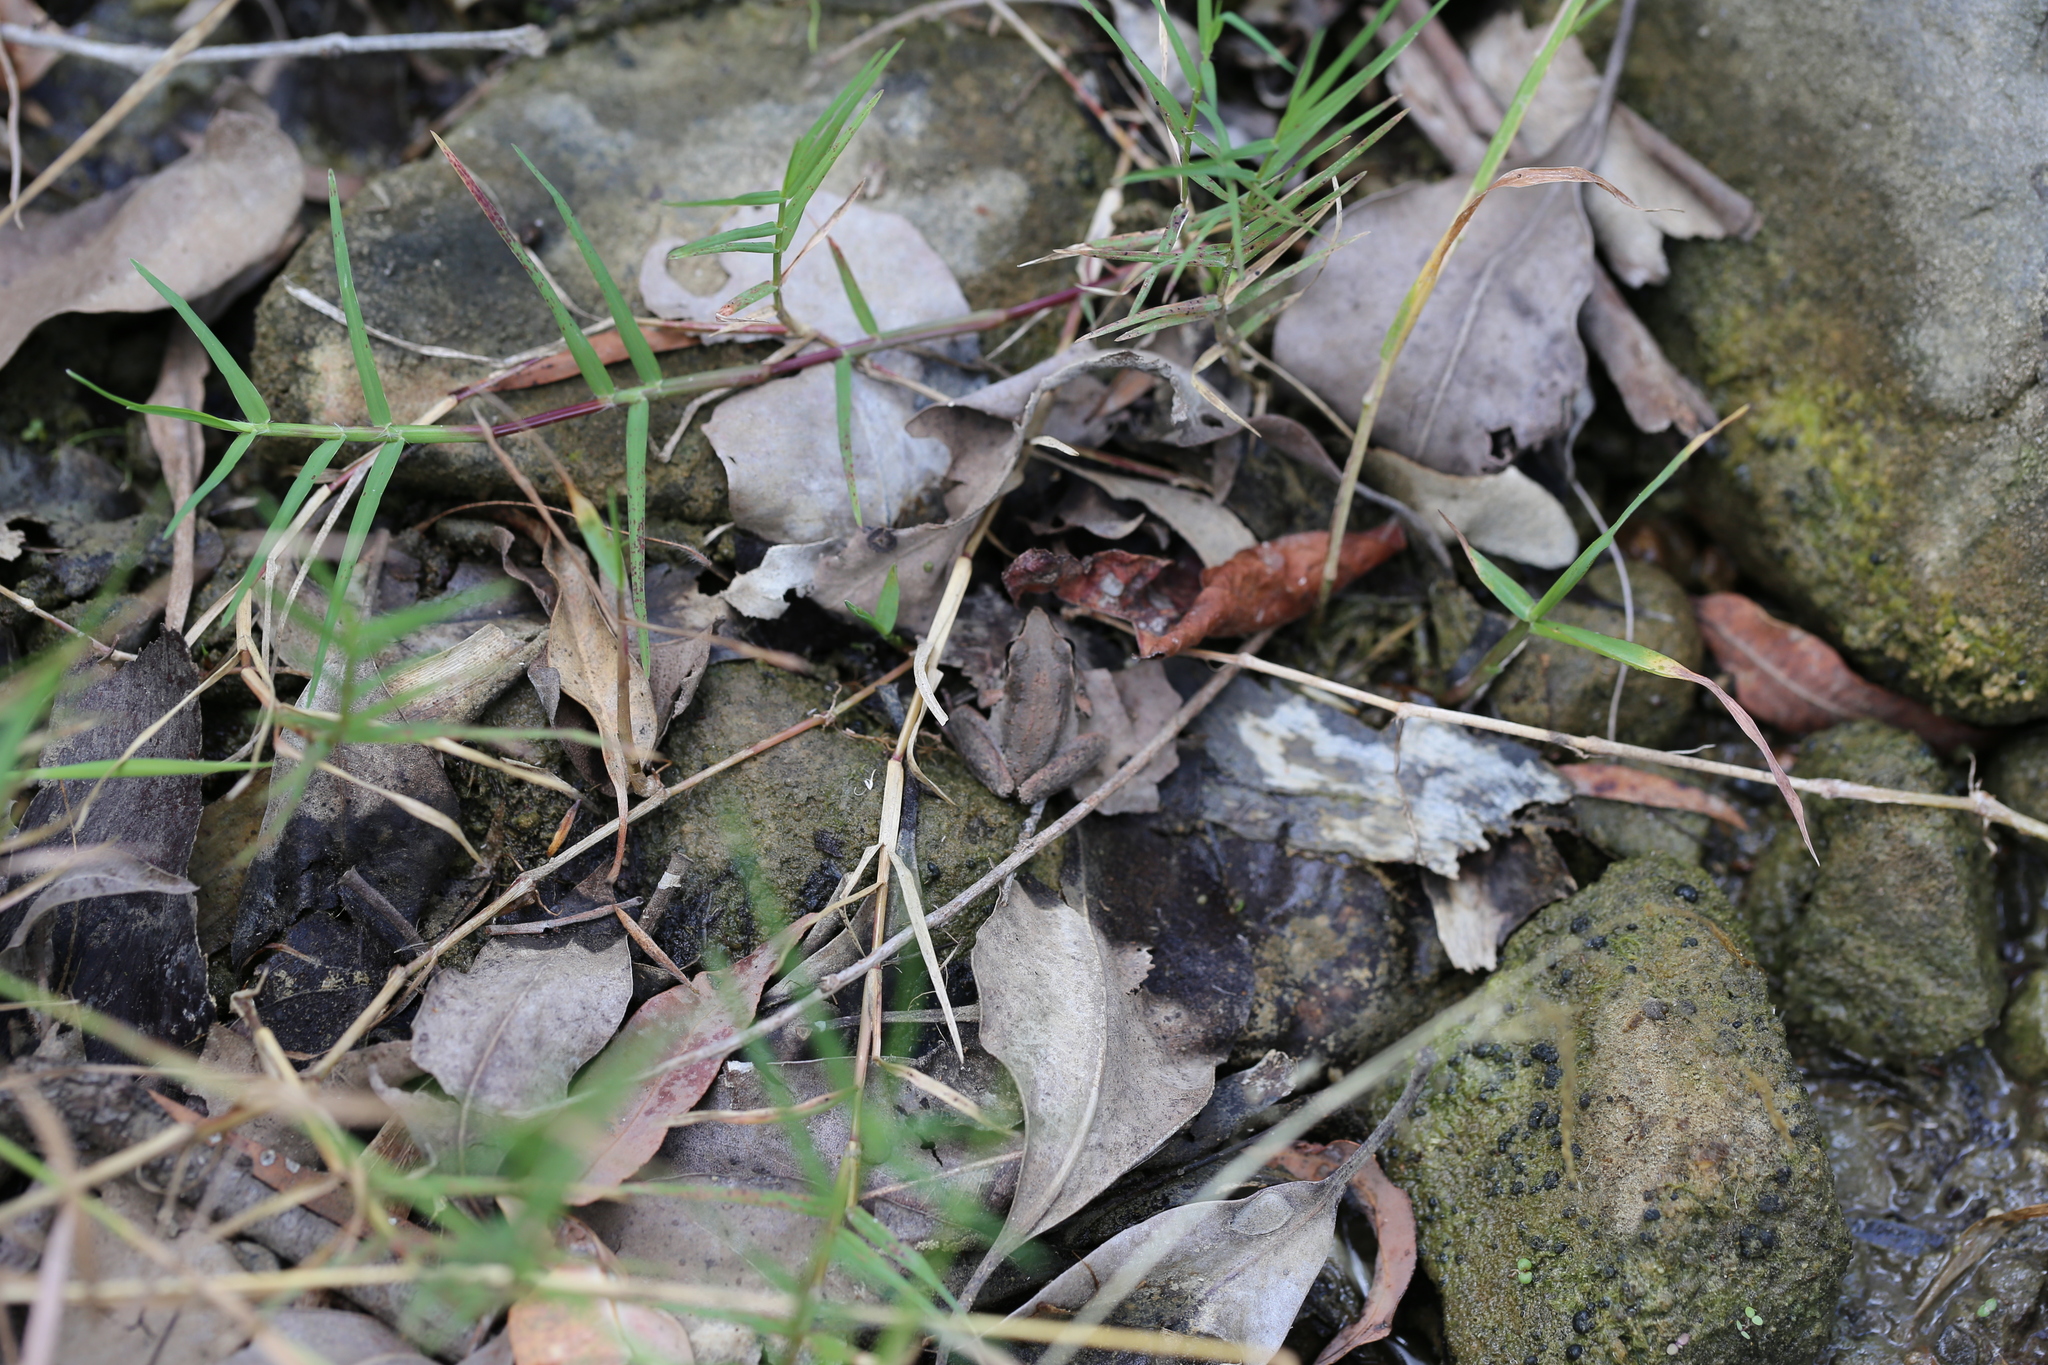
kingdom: Animalia
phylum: Chordata
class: Amphibia
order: Anura
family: Pelodryadidae
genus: Litoria
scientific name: Litoria latopalmata
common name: Broad-palmed rocket frog
